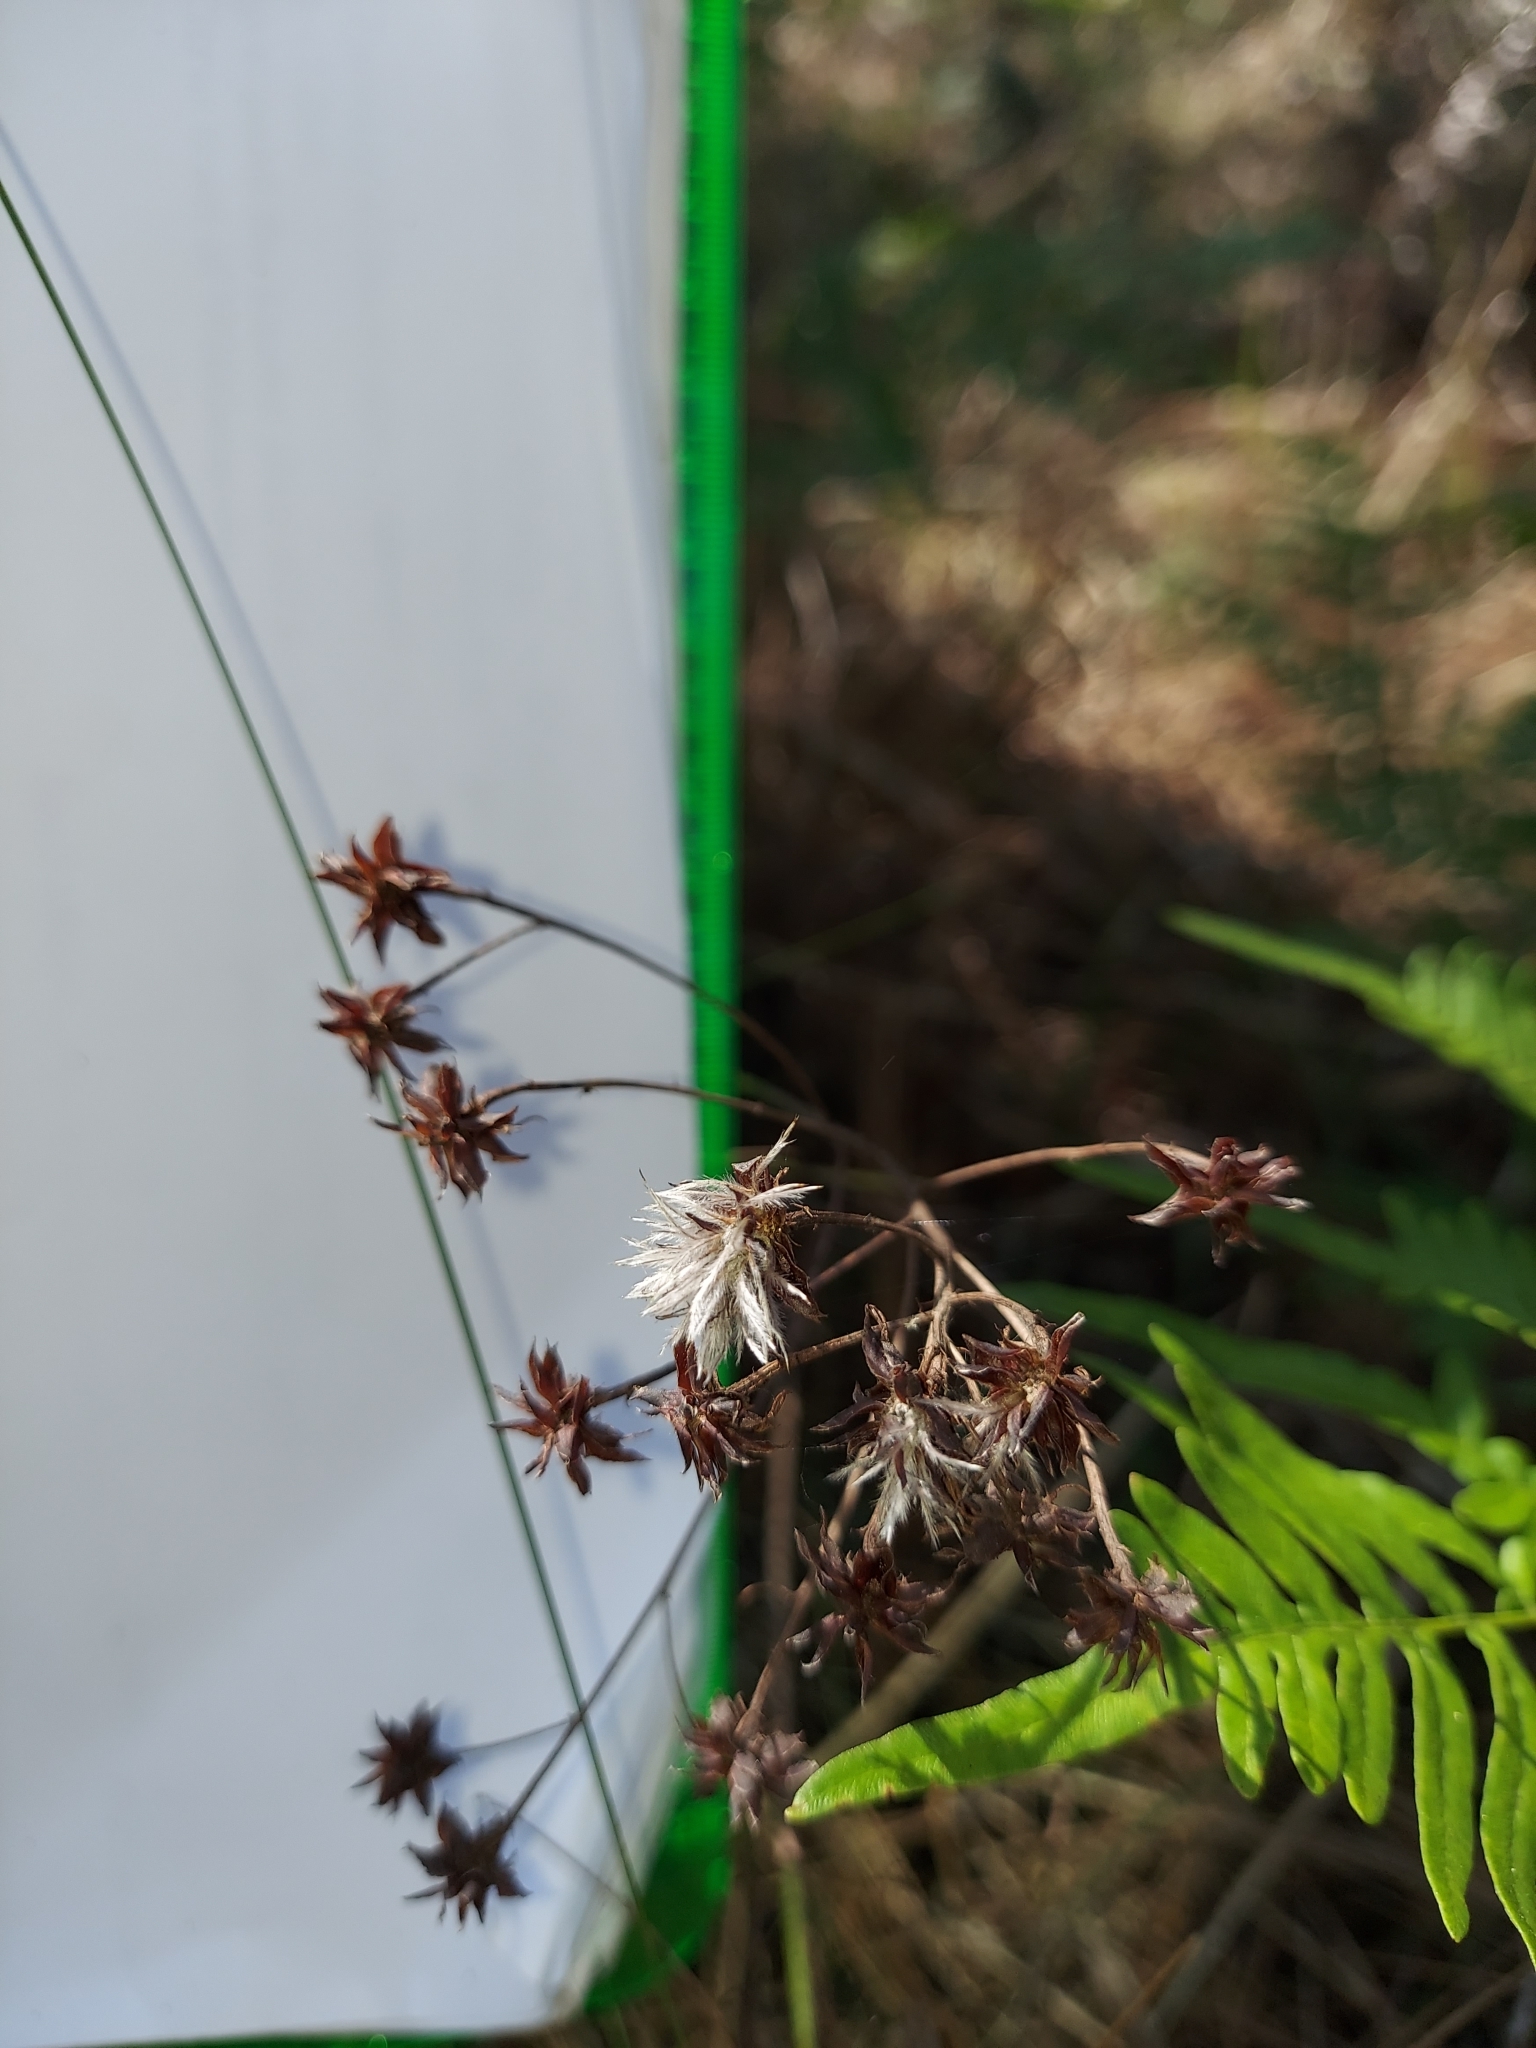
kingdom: Plantae
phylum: Tracheophyta
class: Magnoliopsida
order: Fabales
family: Fabaceae
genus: Dalea
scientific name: Dalea pinnata
